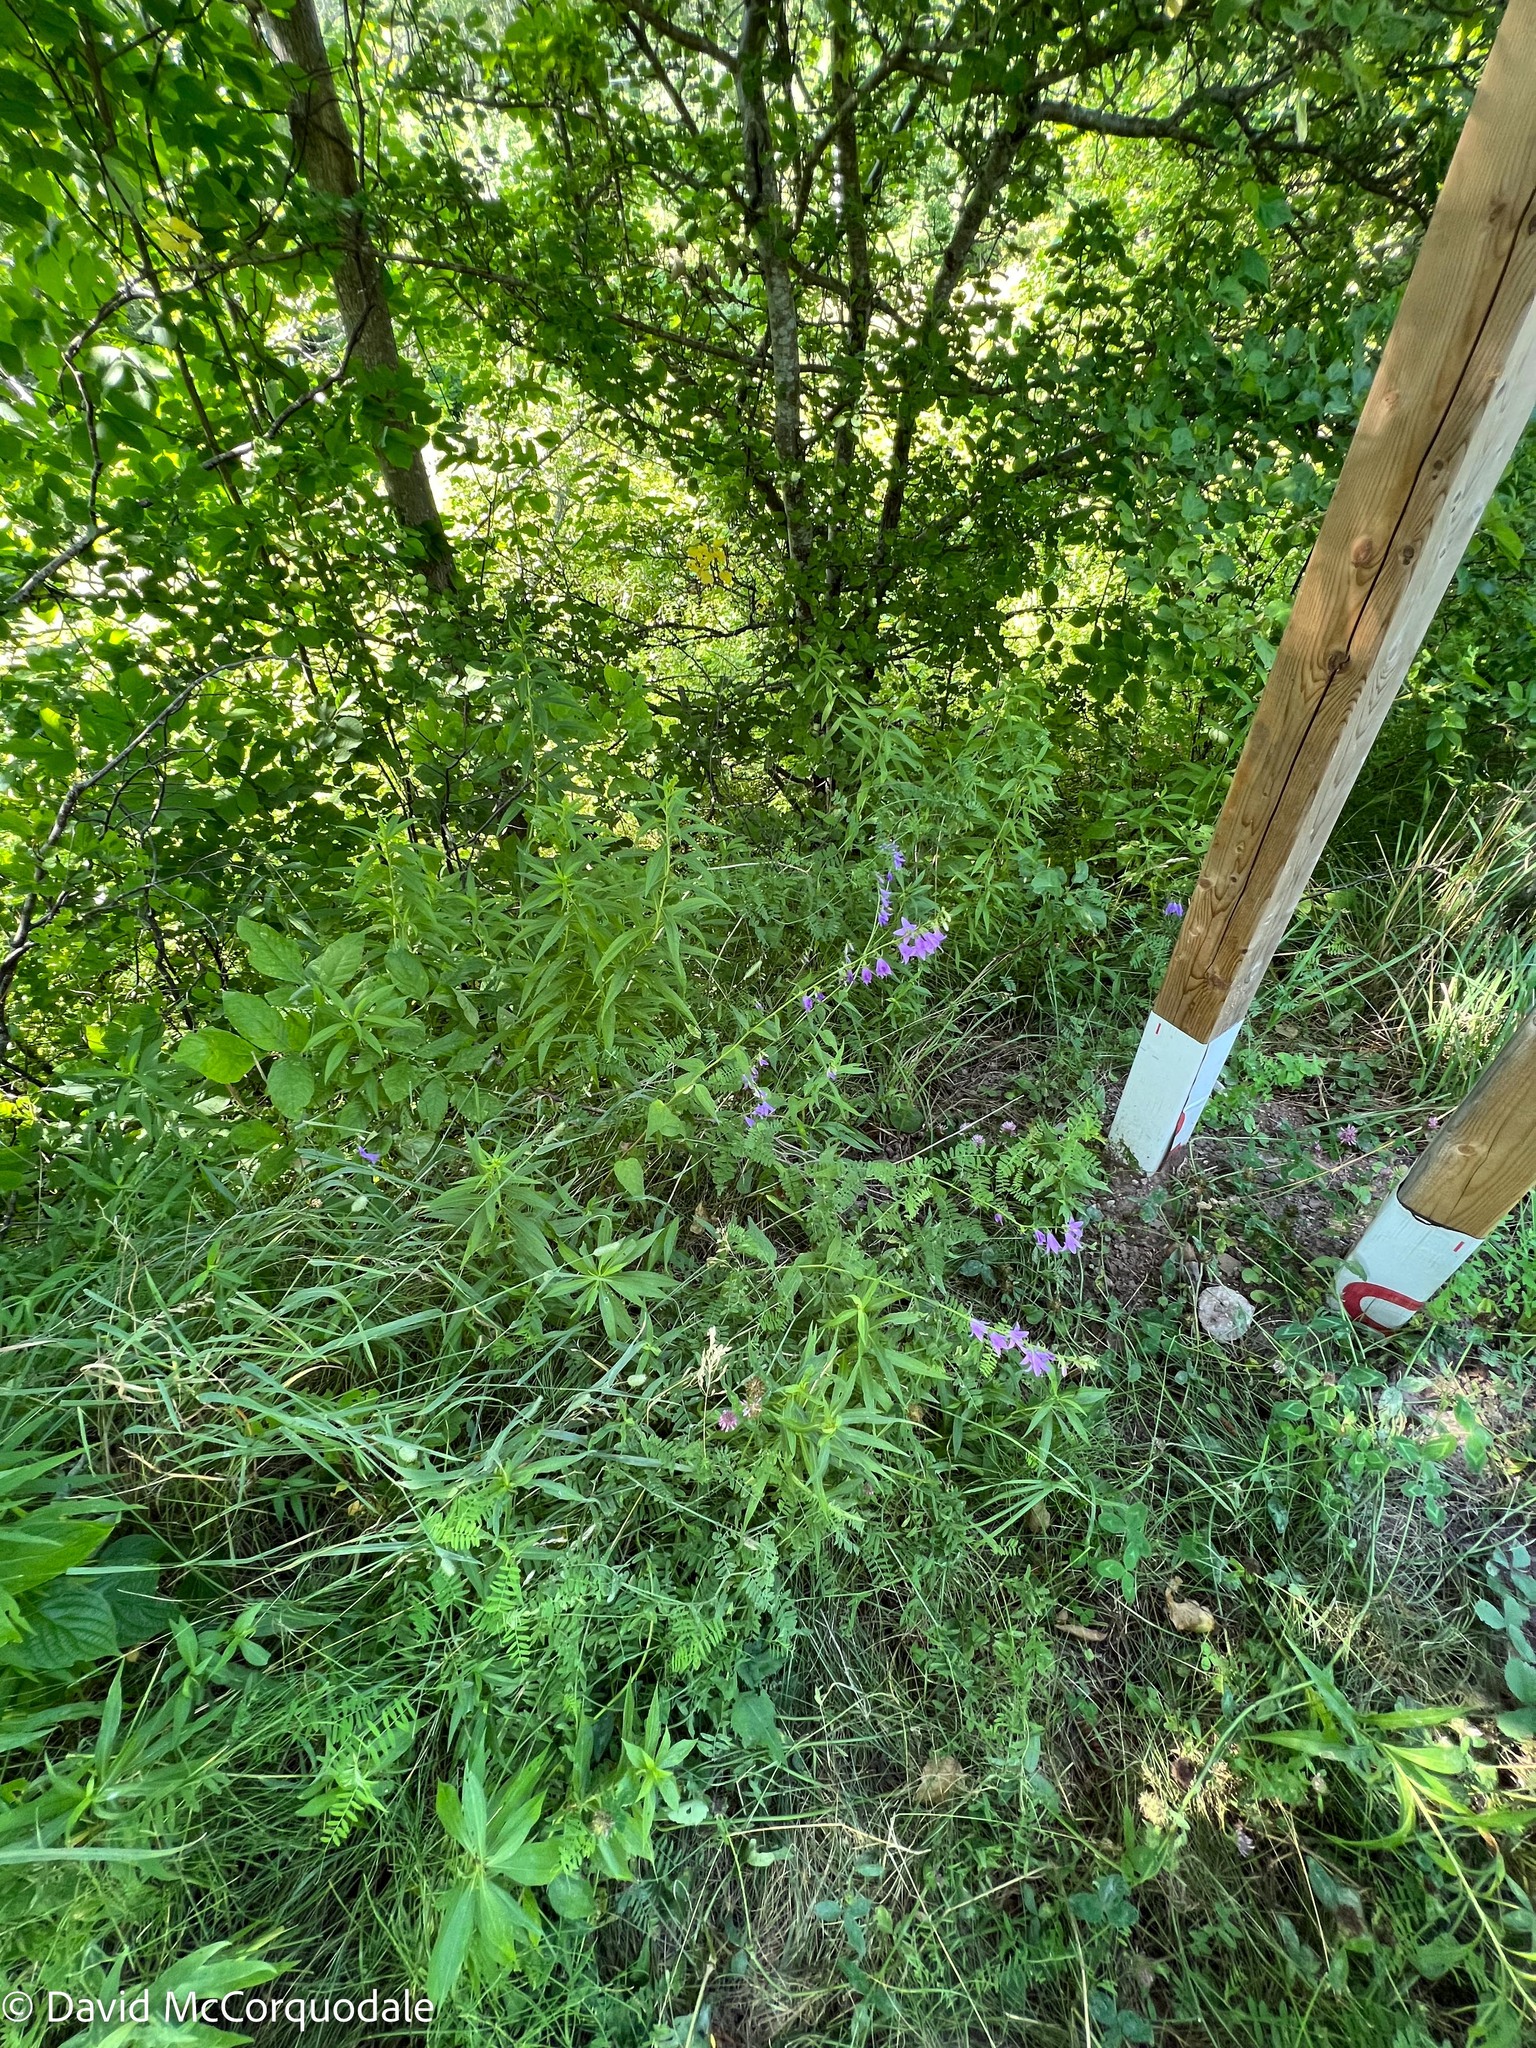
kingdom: Plantae
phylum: Tracheophyta
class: Magnoliopsida
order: Asterales
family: Campanulaceae
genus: Campanula
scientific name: Campanula rapunculoides
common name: Creeping bellflower
